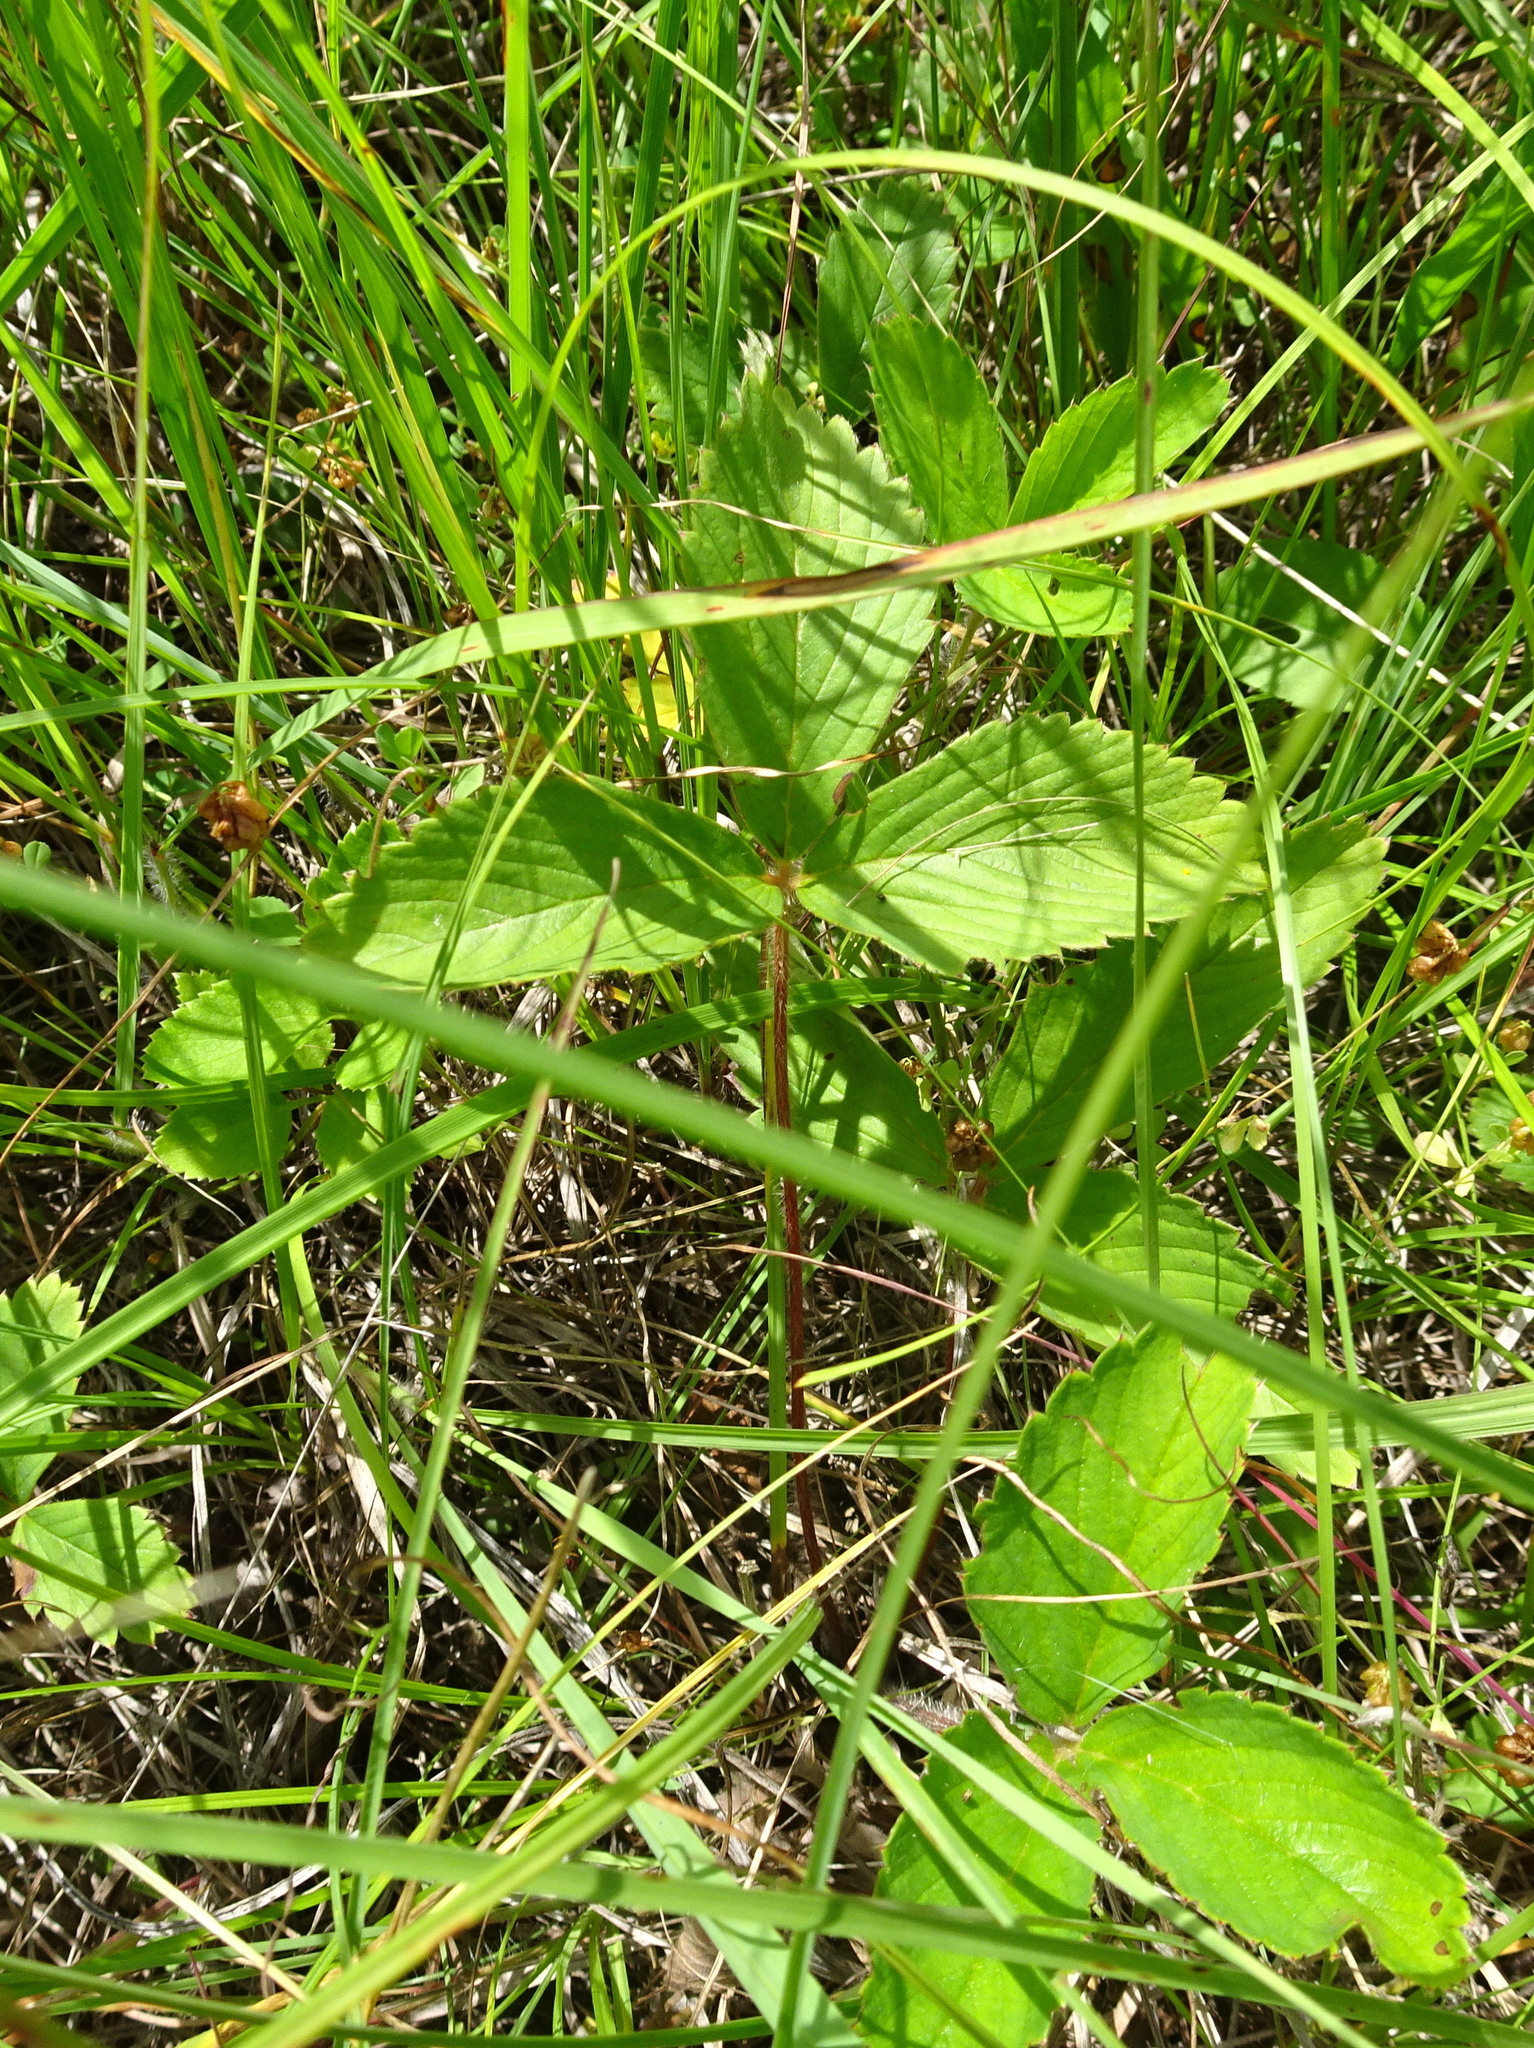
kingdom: Plantae
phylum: Tracheophyta
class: Magnoliopsida
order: Rosales
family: Rosaceae
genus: Fragaria
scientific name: Fragaria virginiana
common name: Thickleaved wild strawberry
